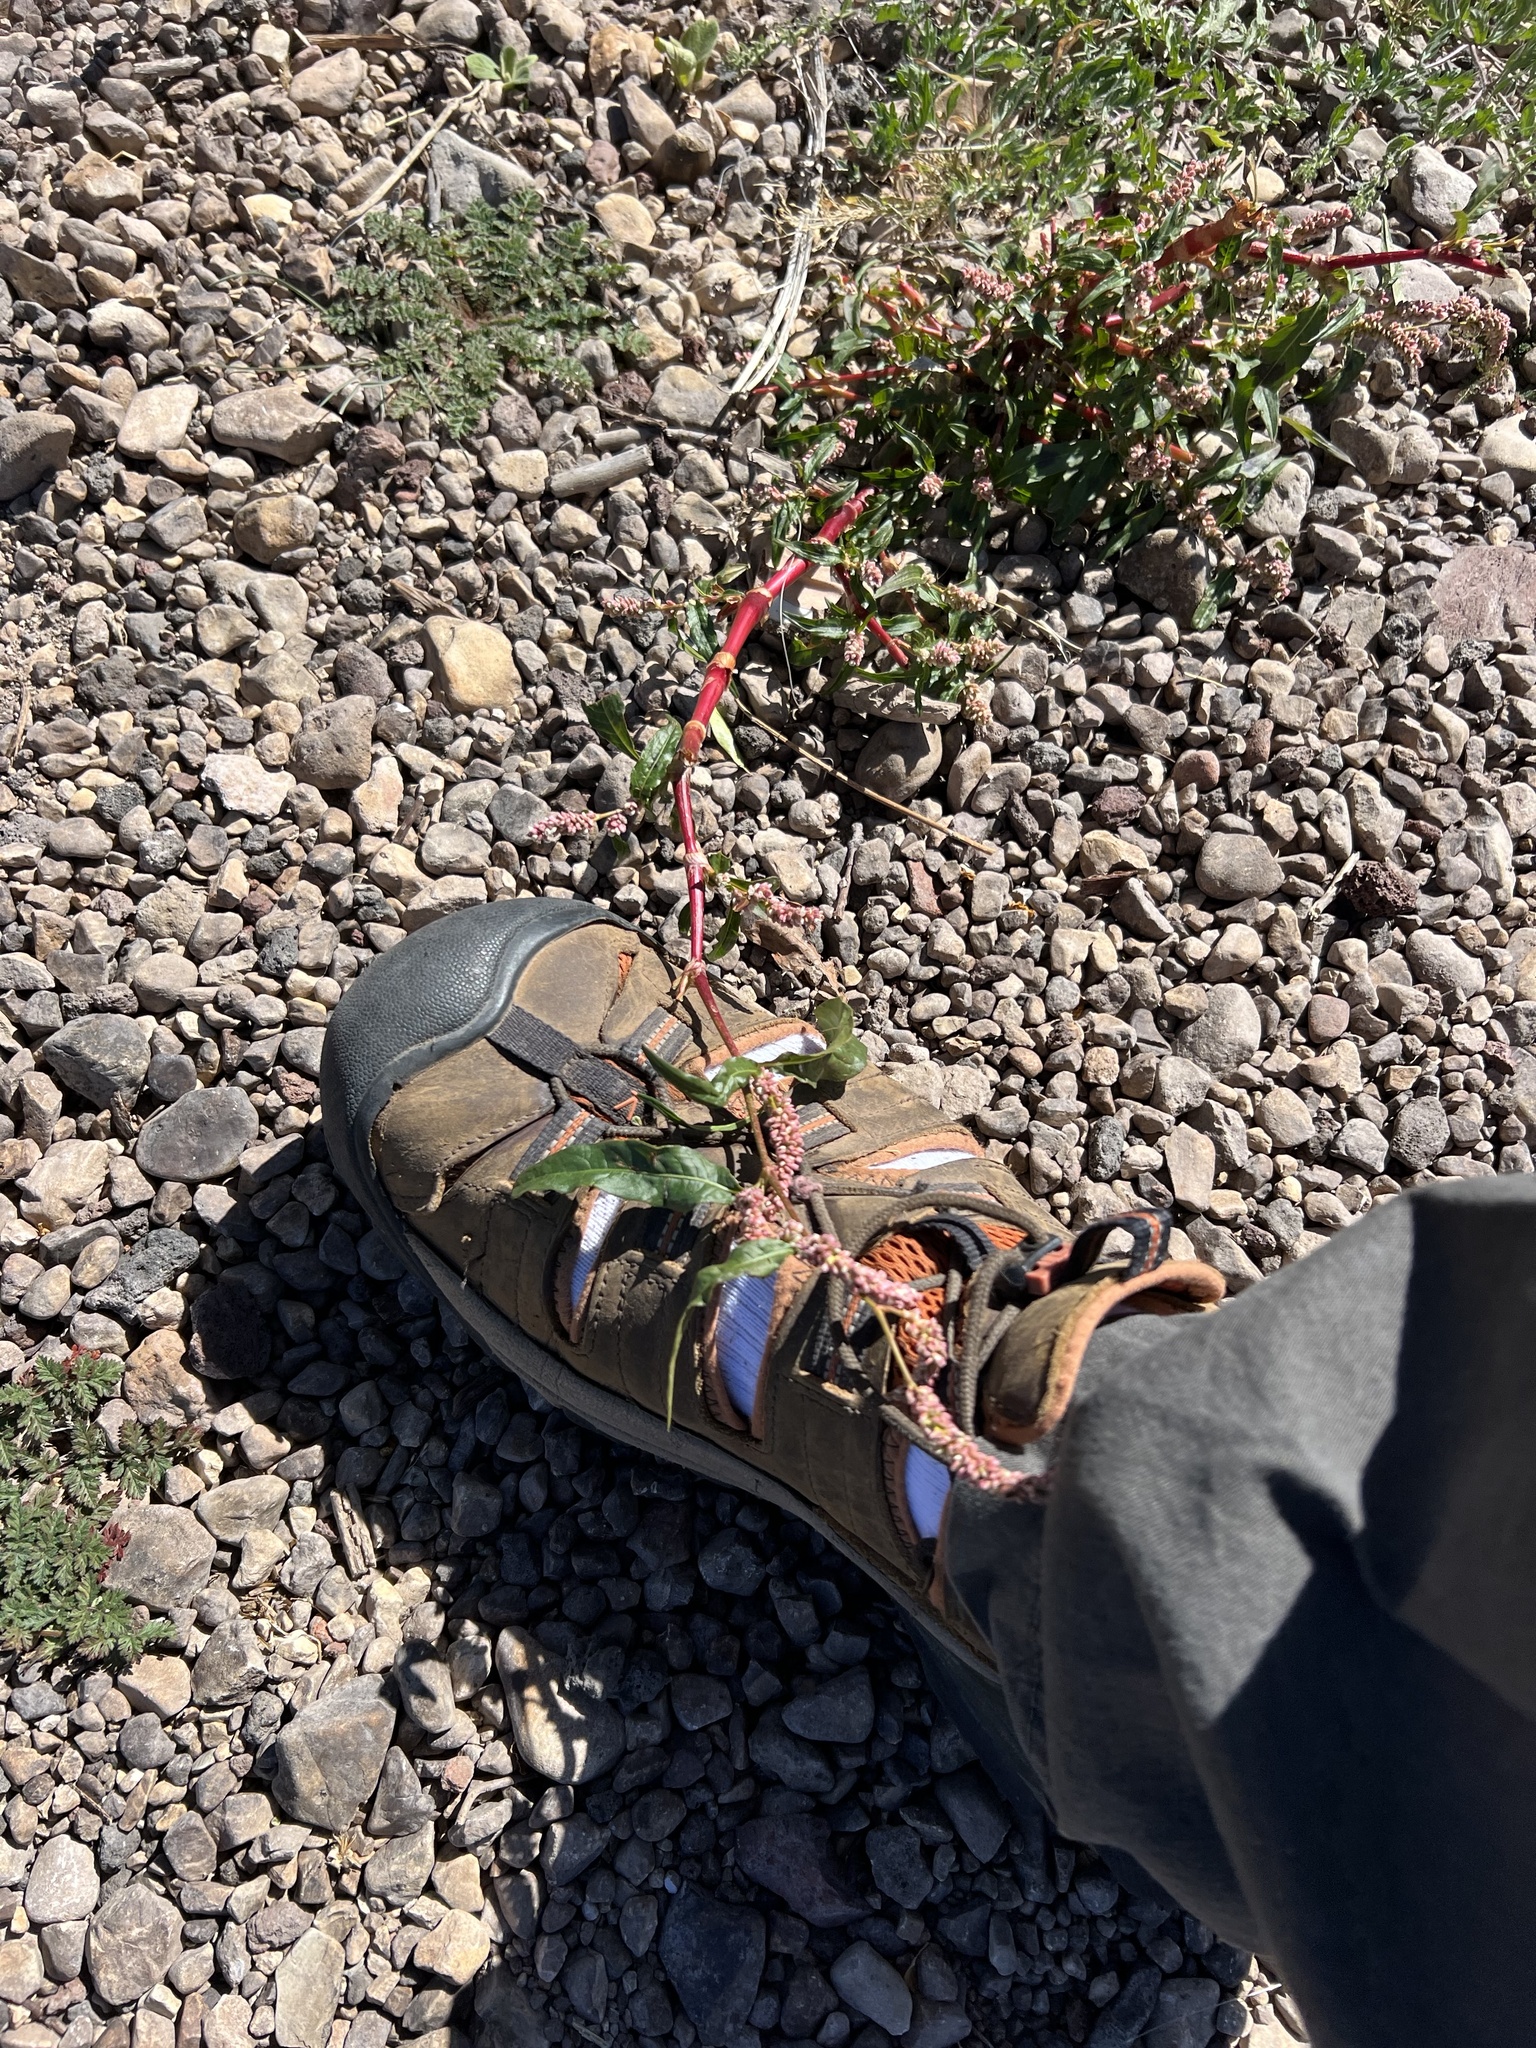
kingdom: Plantae
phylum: Tracheophyta
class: Magnoliopsida
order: Caryophyllales
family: Polygonaceae
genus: Persicaria
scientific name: Persicaria pensylvanica
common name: Pinkweed
